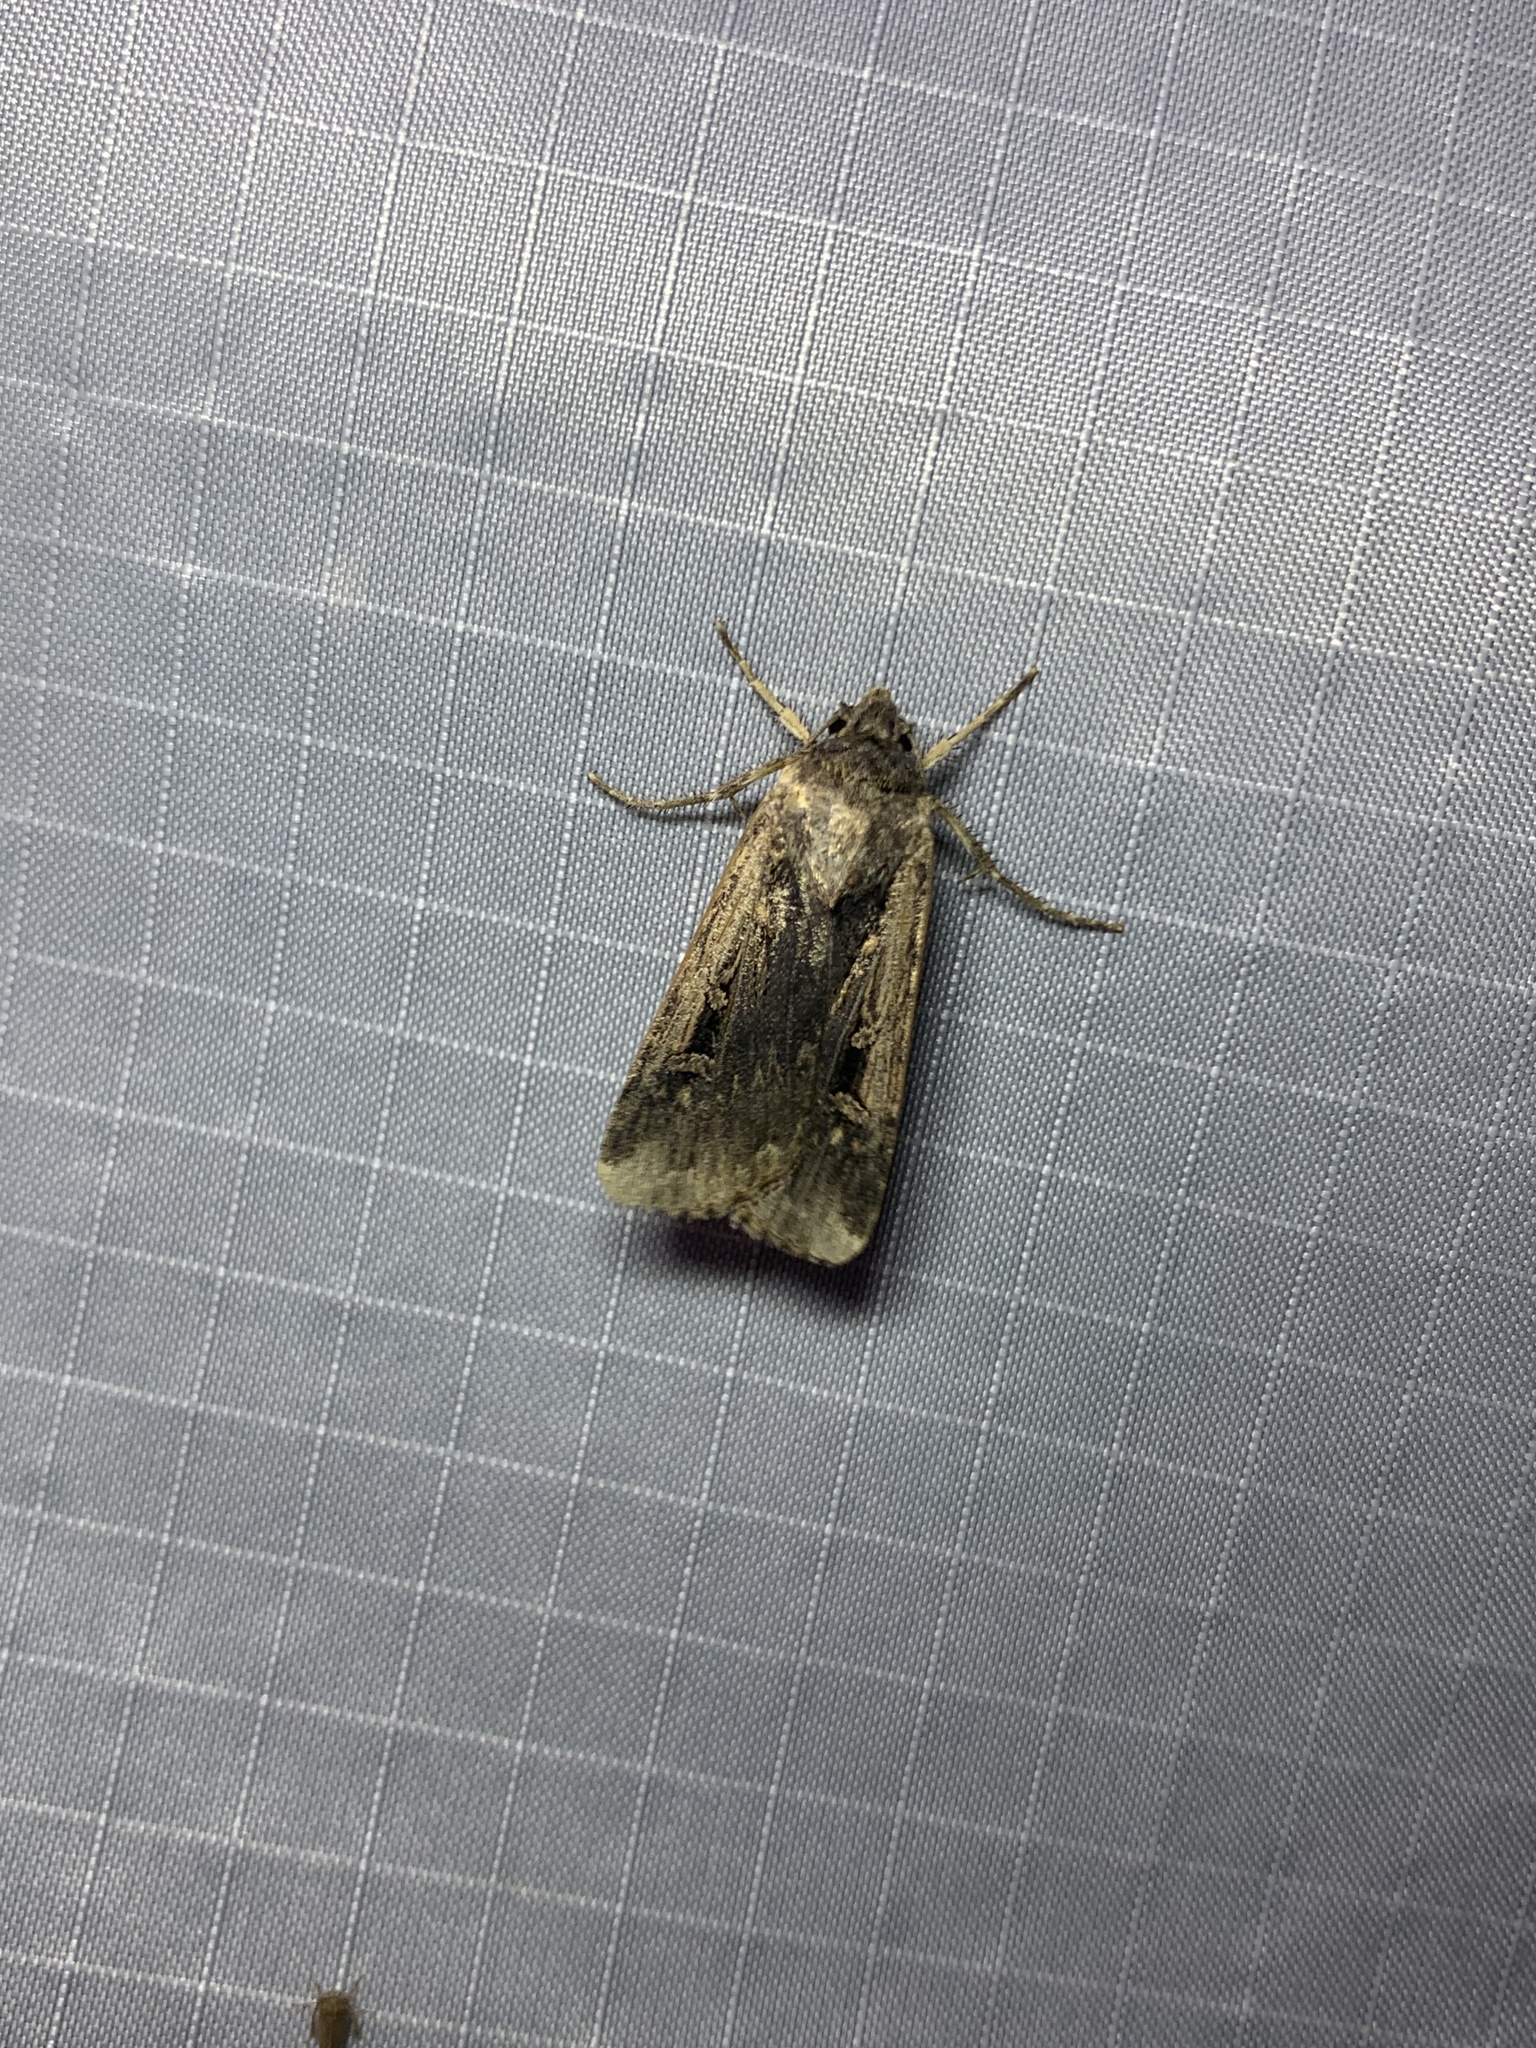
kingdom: Animalia
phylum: Arthropoda
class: Insecta
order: Lepidoptera
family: Noctuidae
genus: Feltia
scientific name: Feltia subterranea
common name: Granulate cutworm
